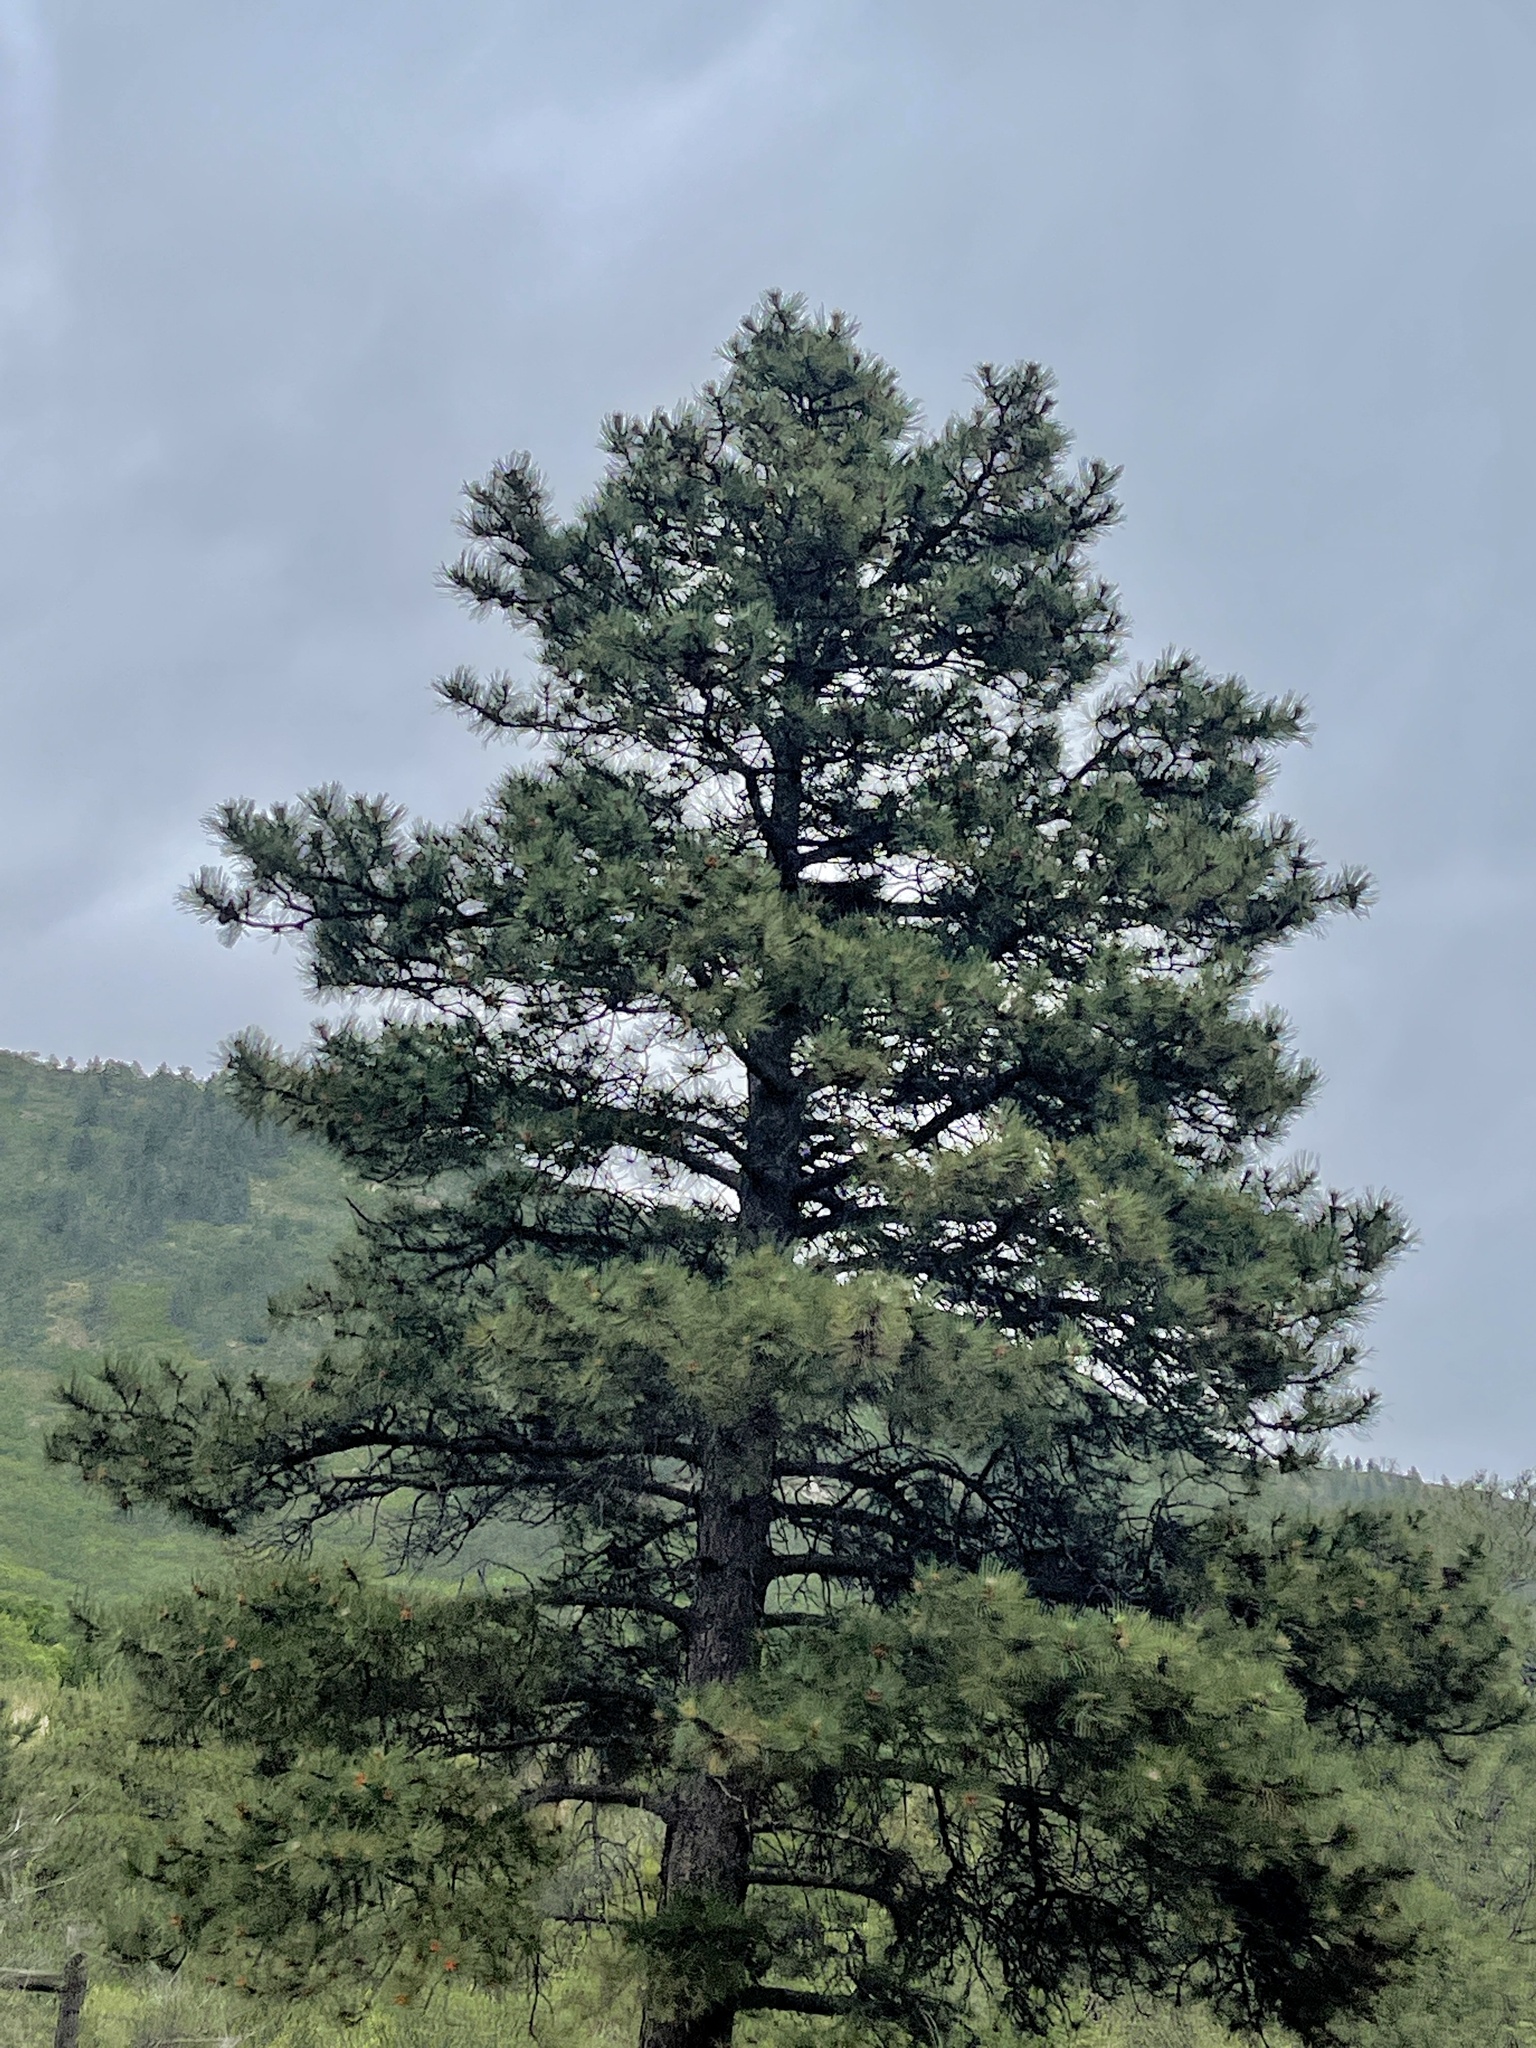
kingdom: Plantae
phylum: Tracheophyta
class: Pinopsida
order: Pinales
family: Pinaceae
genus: Pinus
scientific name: Pinus ponderosa
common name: Western yellow-pine
